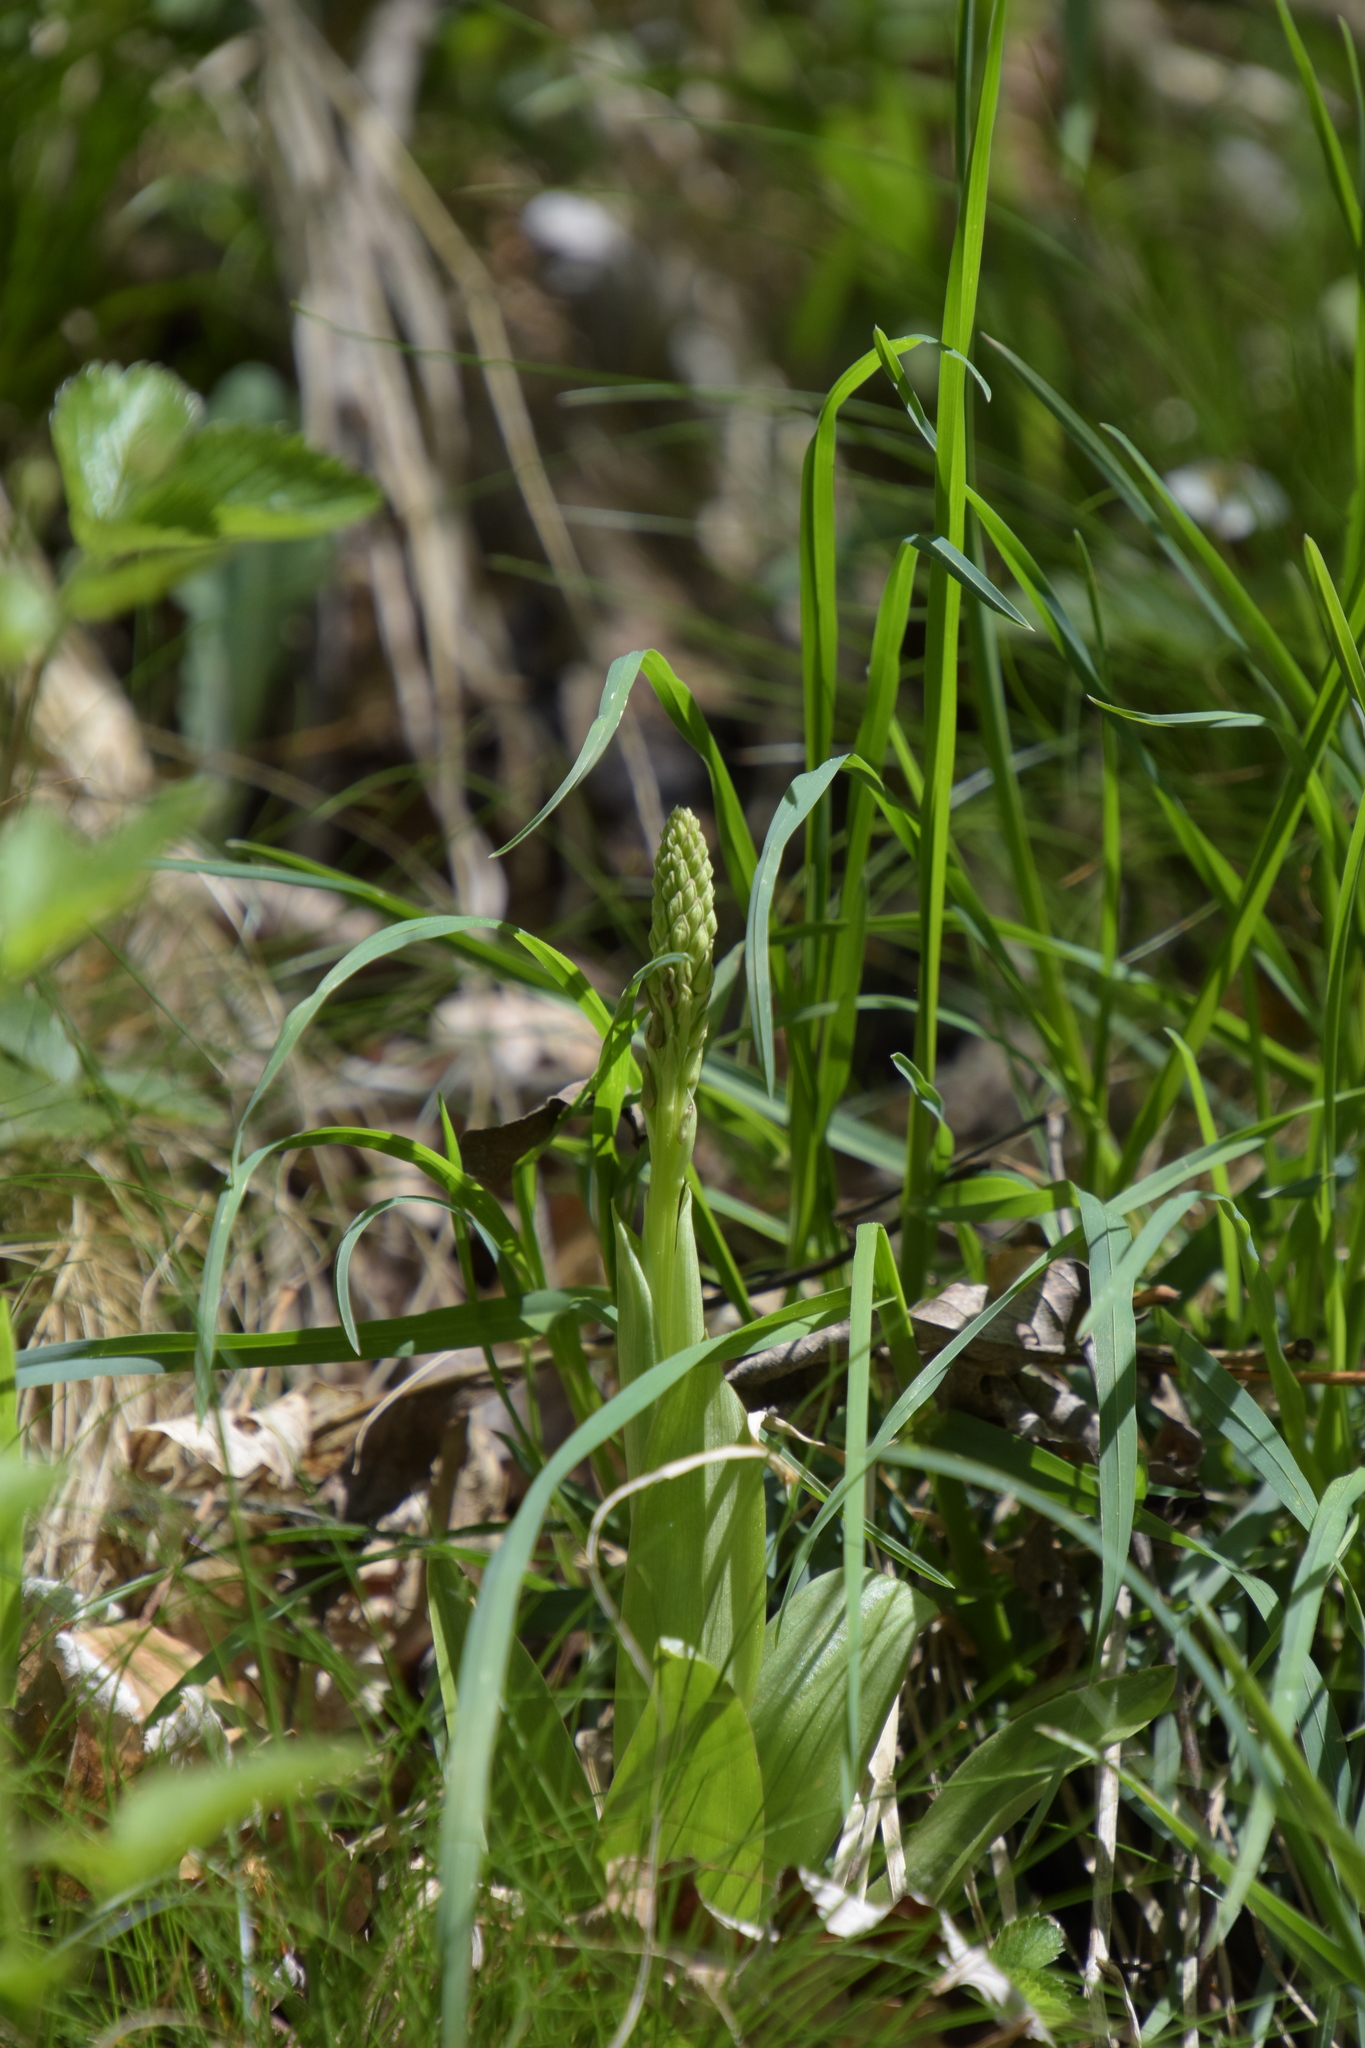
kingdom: Plantae
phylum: Tracheophyta
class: Liliopsida
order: Asparagales
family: Orchidaceae
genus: Orchis
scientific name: Orchis anthropophora
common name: Man orchid
